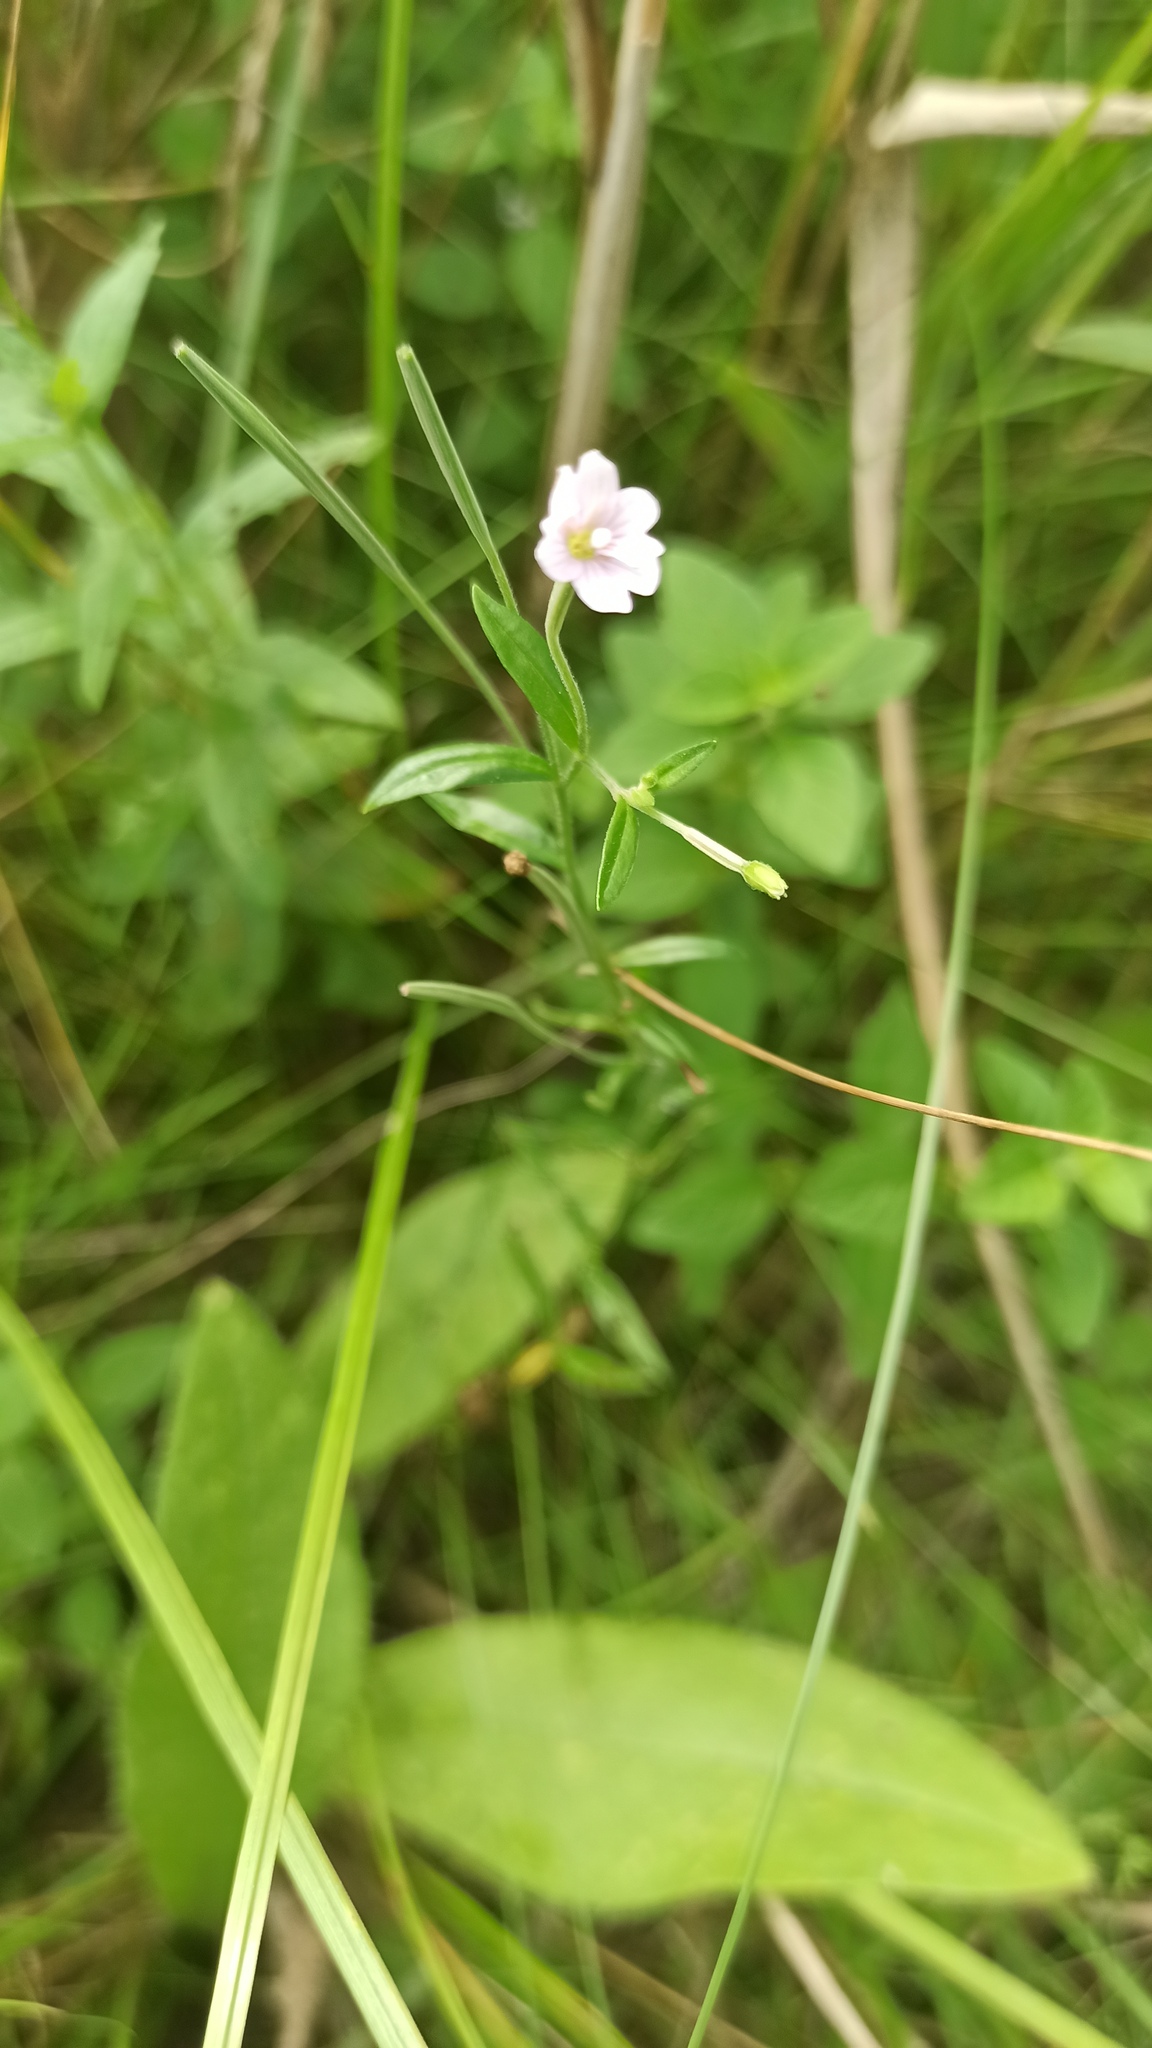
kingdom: Plantae
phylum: Tracheophyta
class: Magnoliopsida
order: Myrtales
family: Onagraceae
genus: Epilobium
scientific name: Epilobium palustre
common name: Marsh willowherb
